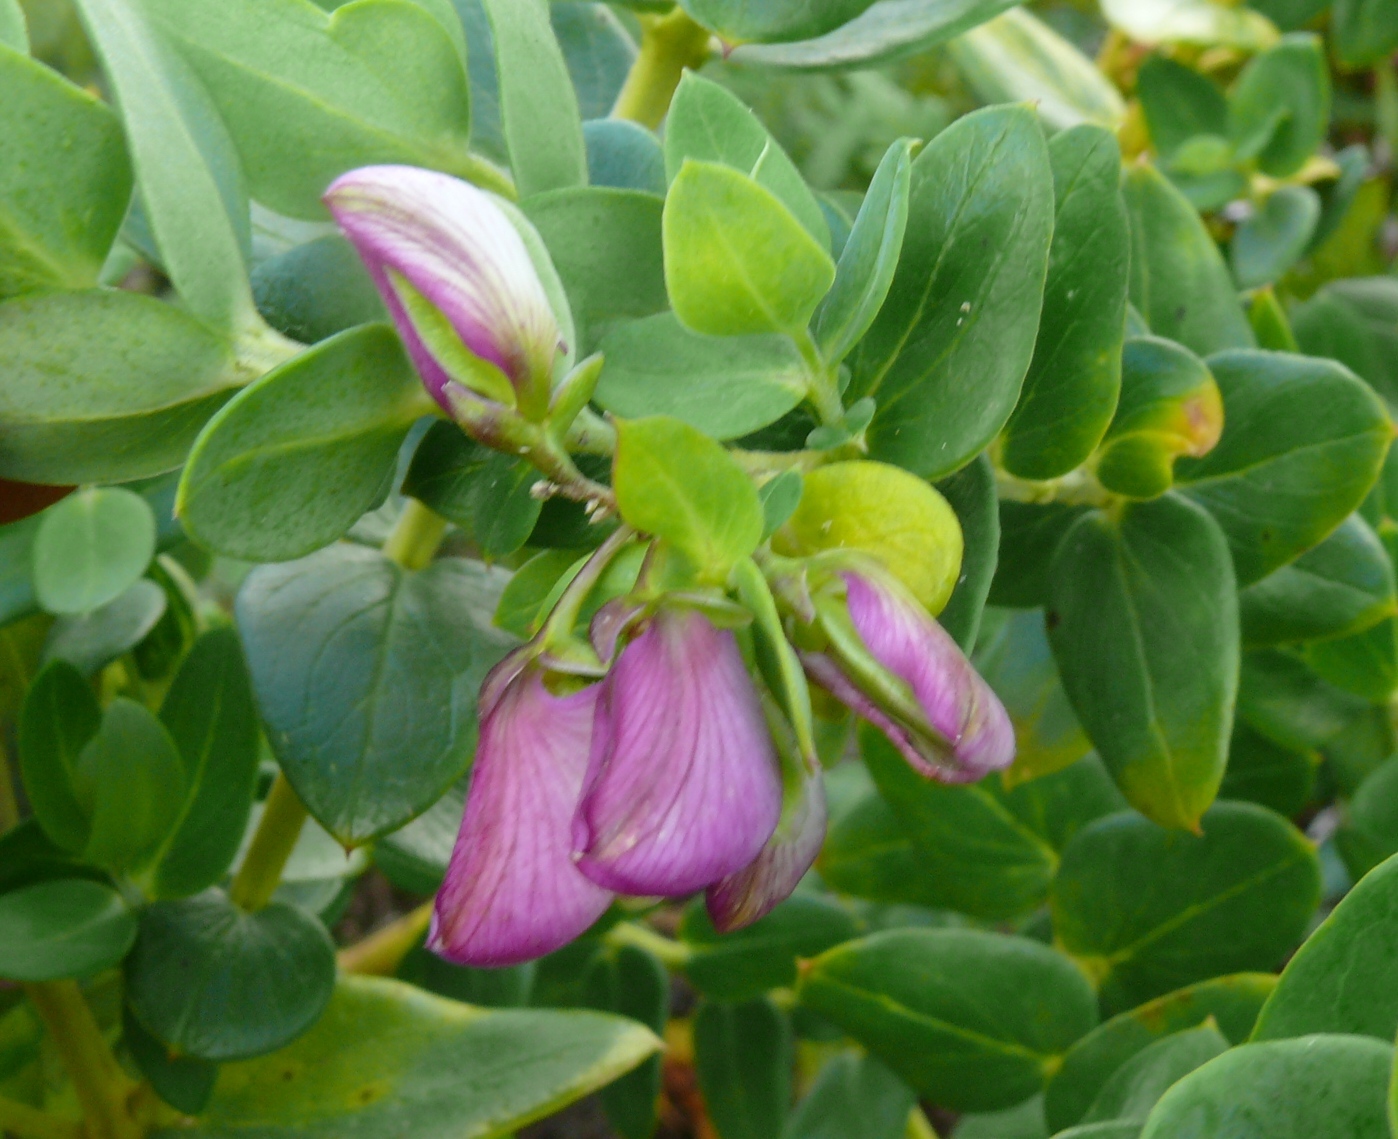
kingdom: Plantae
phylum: Tracheophyta
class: Magnoliopsida
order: Fabales
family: Polygalaceae
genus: Polygala
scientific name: Polygala fruticosa
